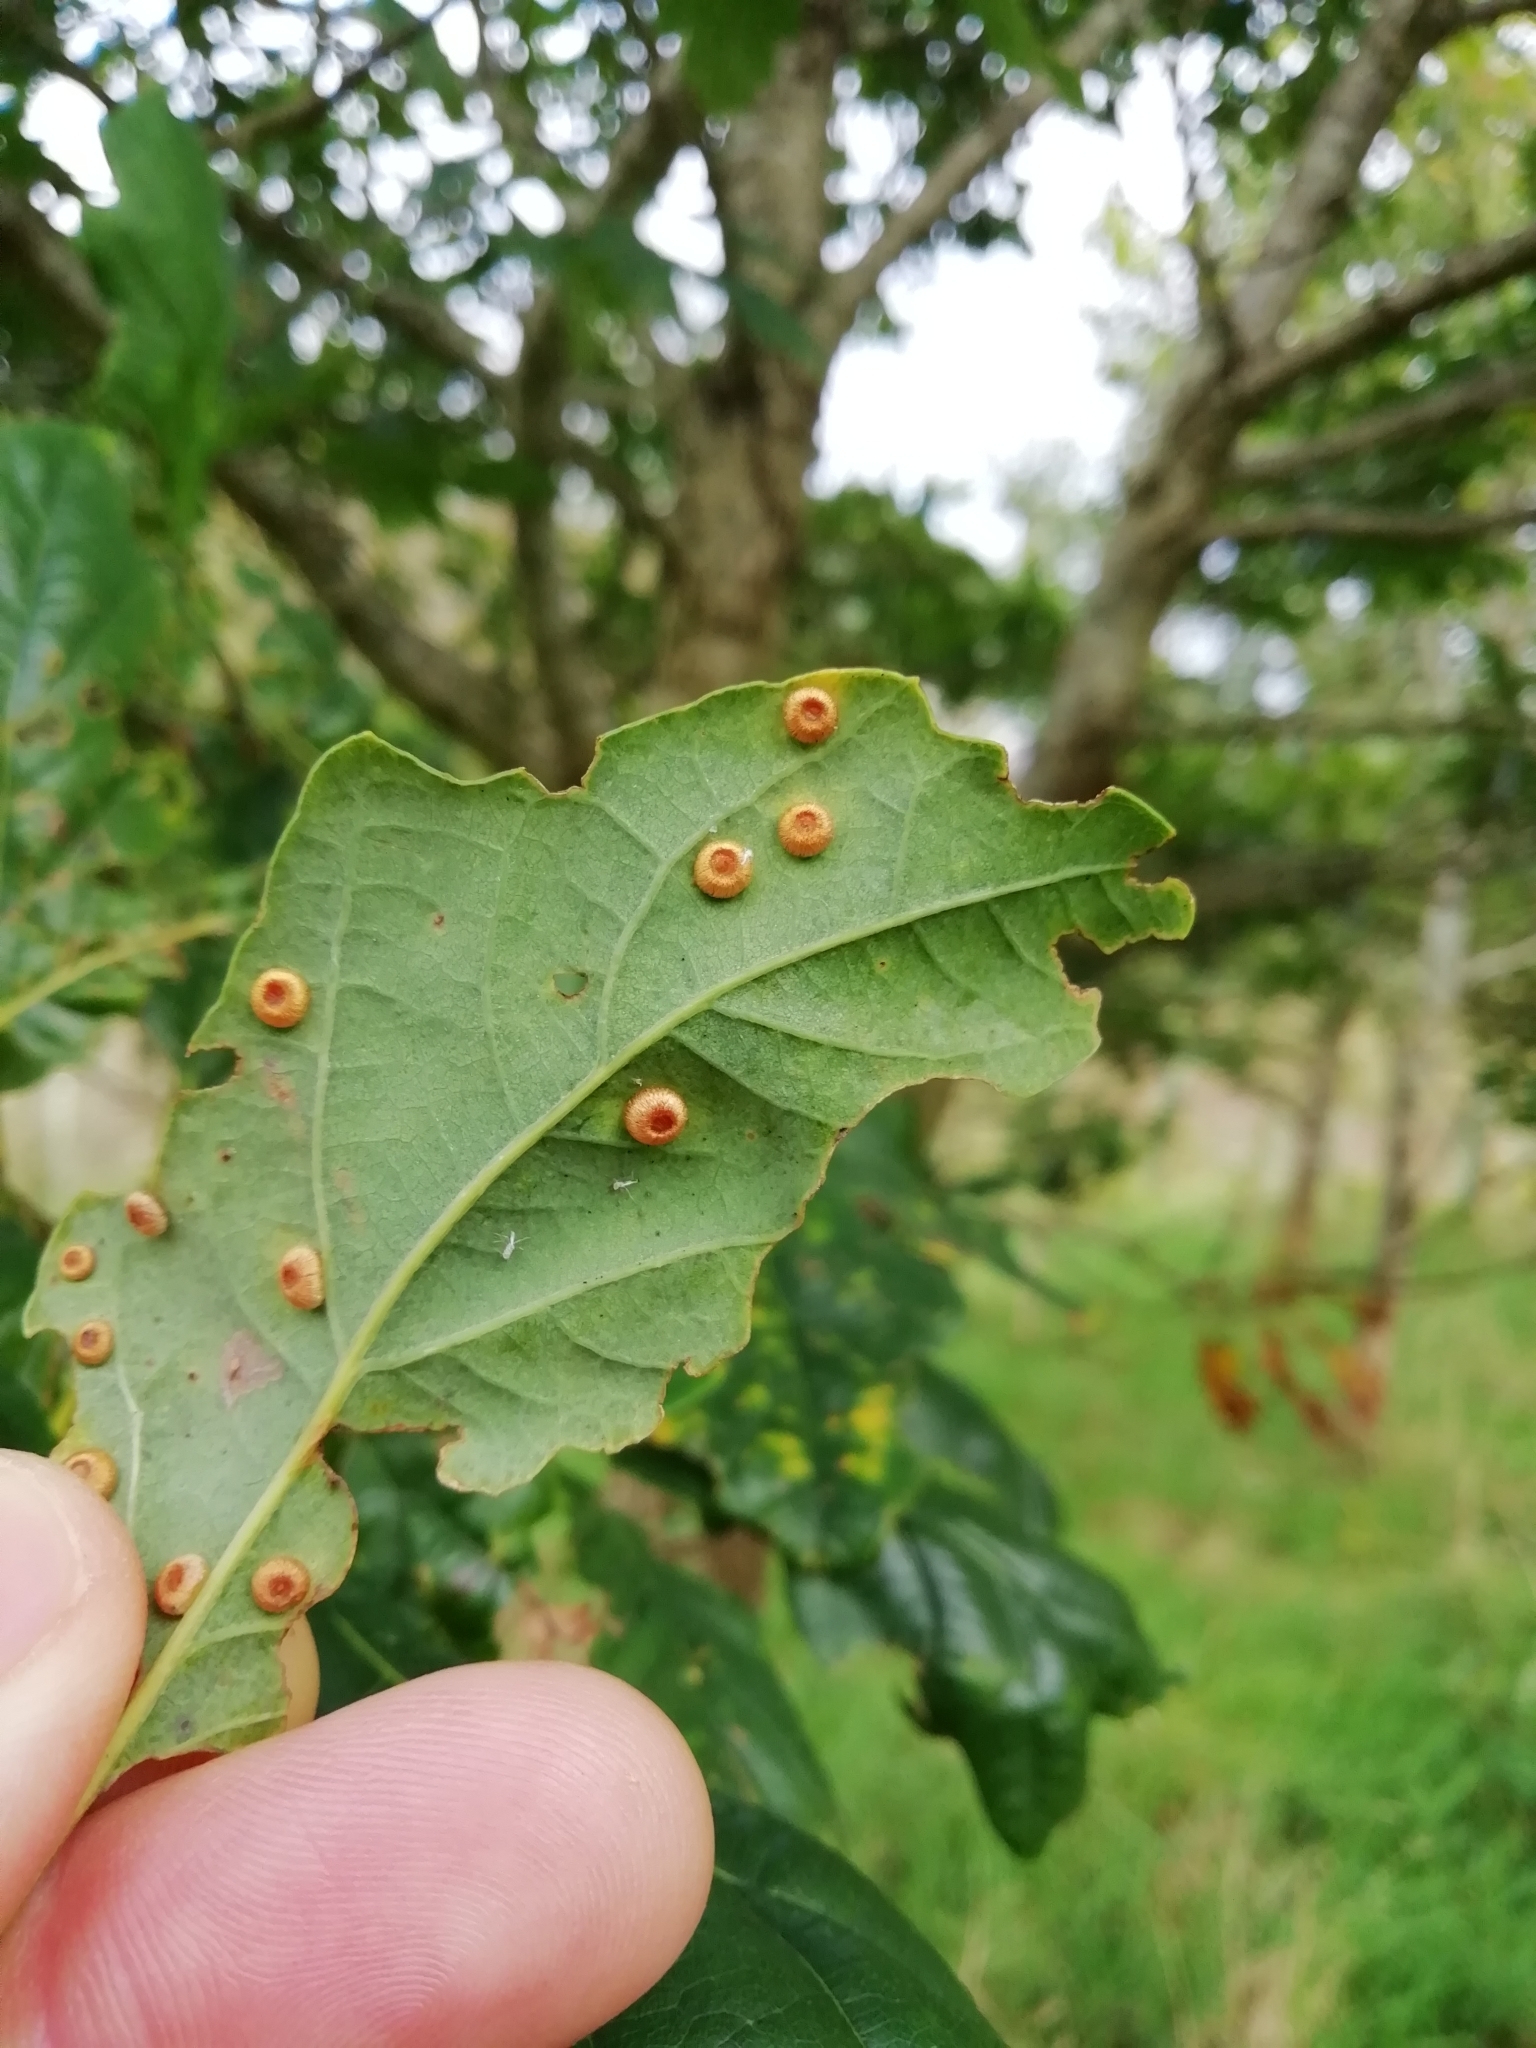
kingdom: Animalia
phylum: Arthropoda
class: Insecta
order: Hymenoptera
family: Cynipidae
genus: Neuroterus
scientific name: Neuroterus numismalis
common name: Silk-button spangle gall
